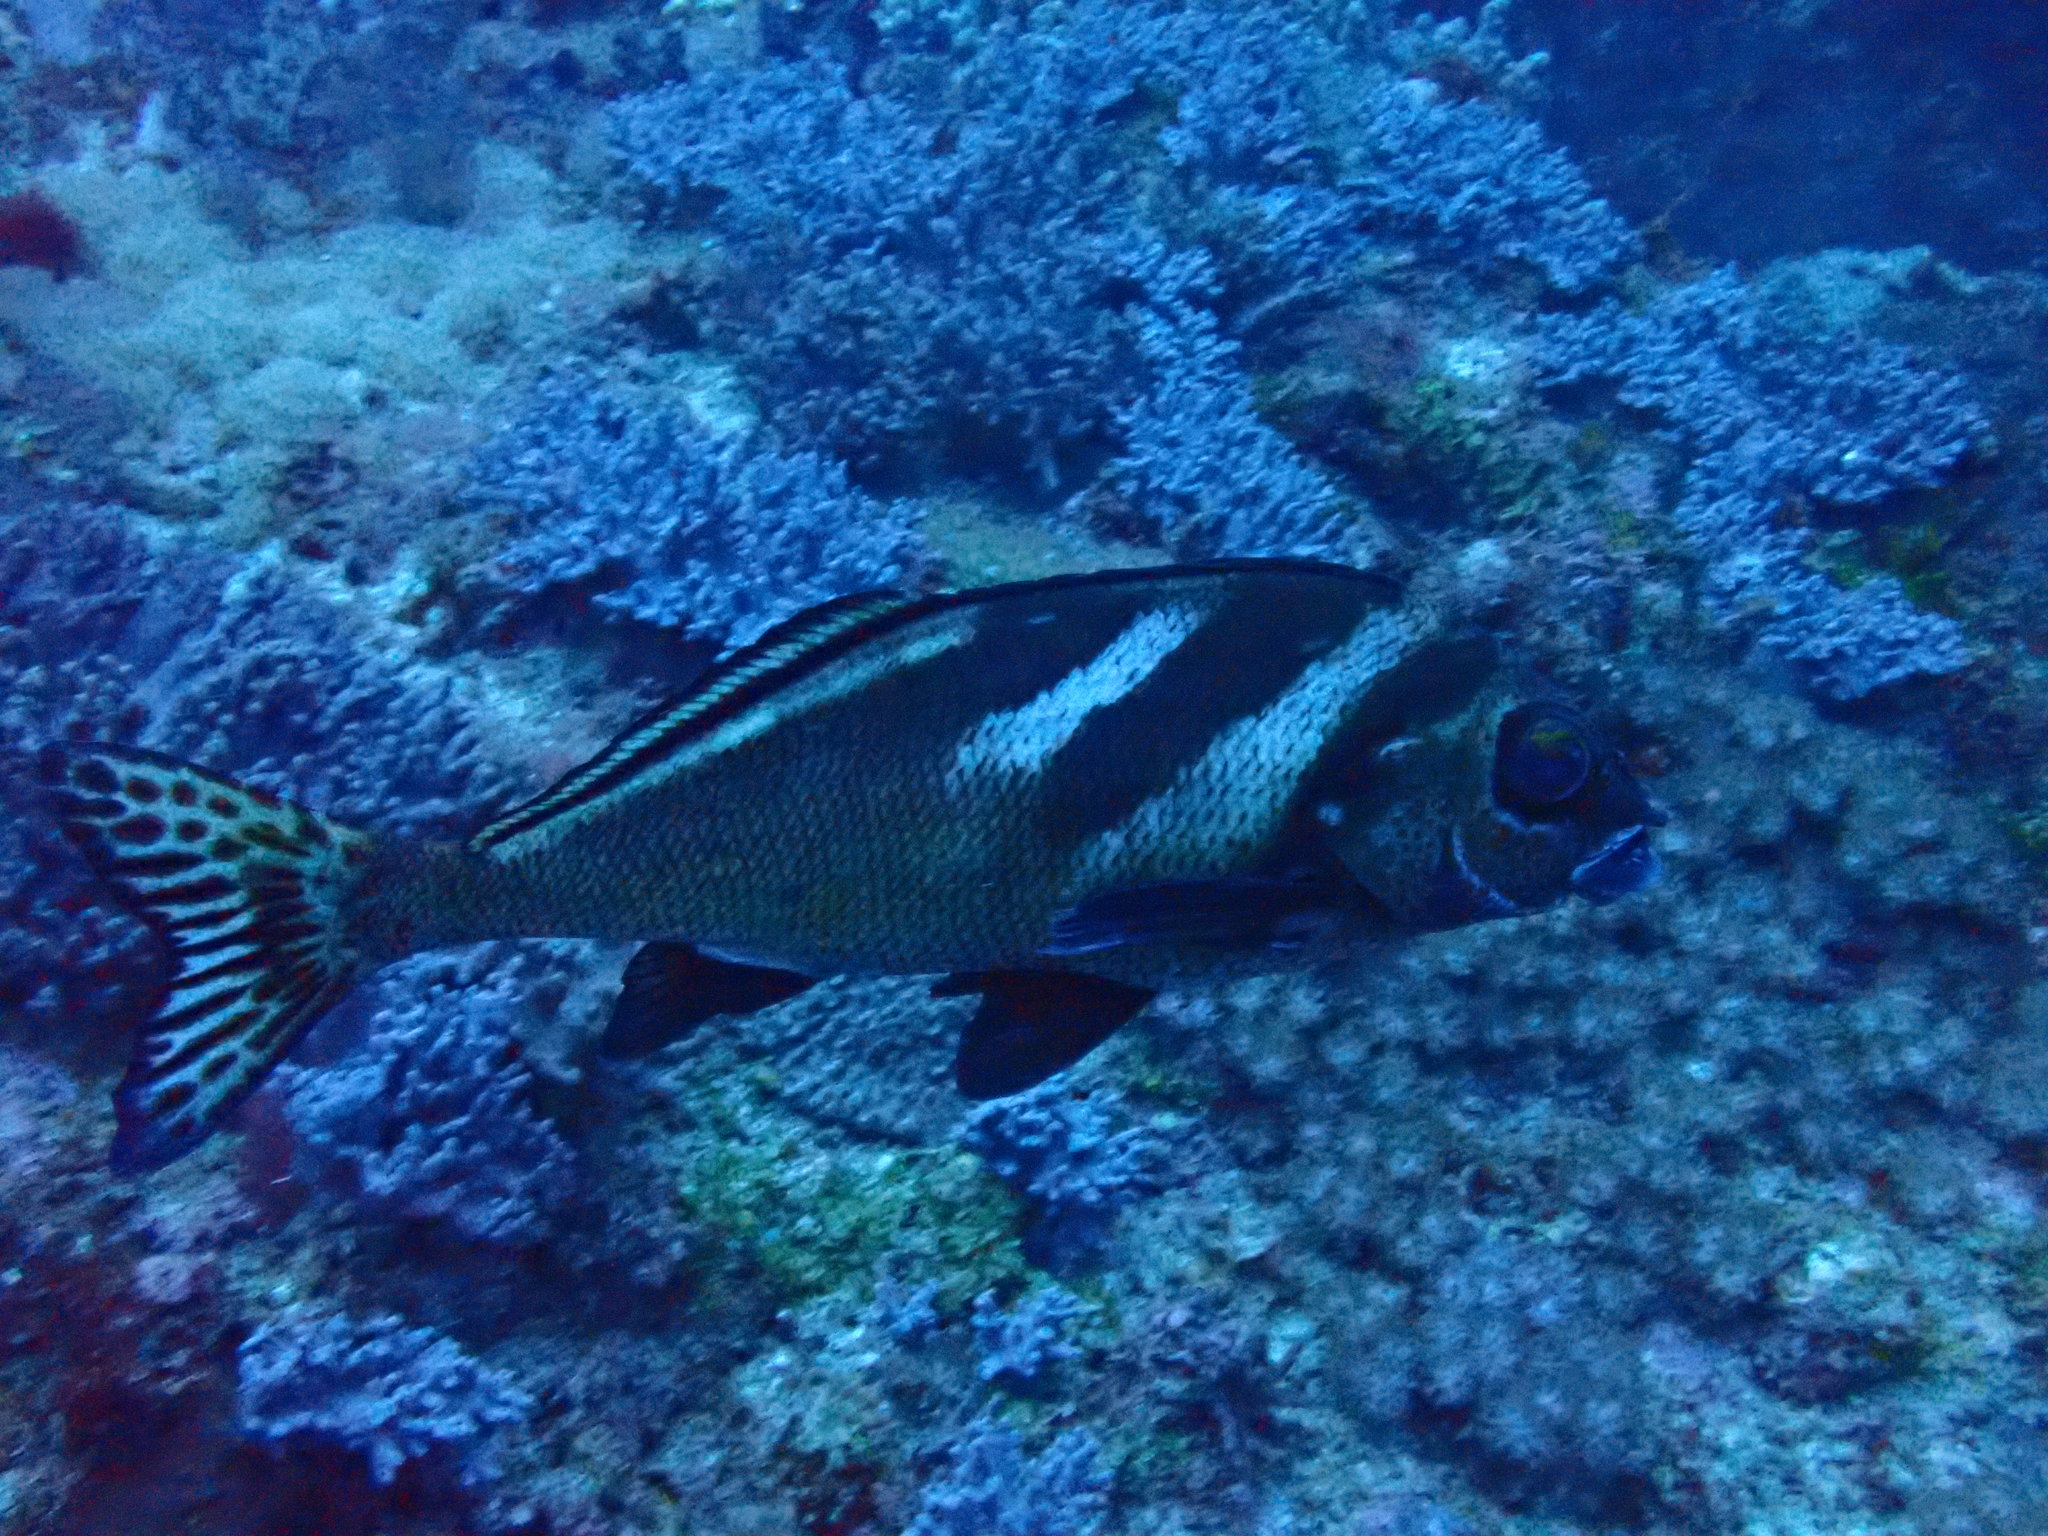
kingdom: Animalia
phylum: Chordata
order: Perciformes
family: Latridae
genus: Morwong
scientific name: Morwong ephippium
